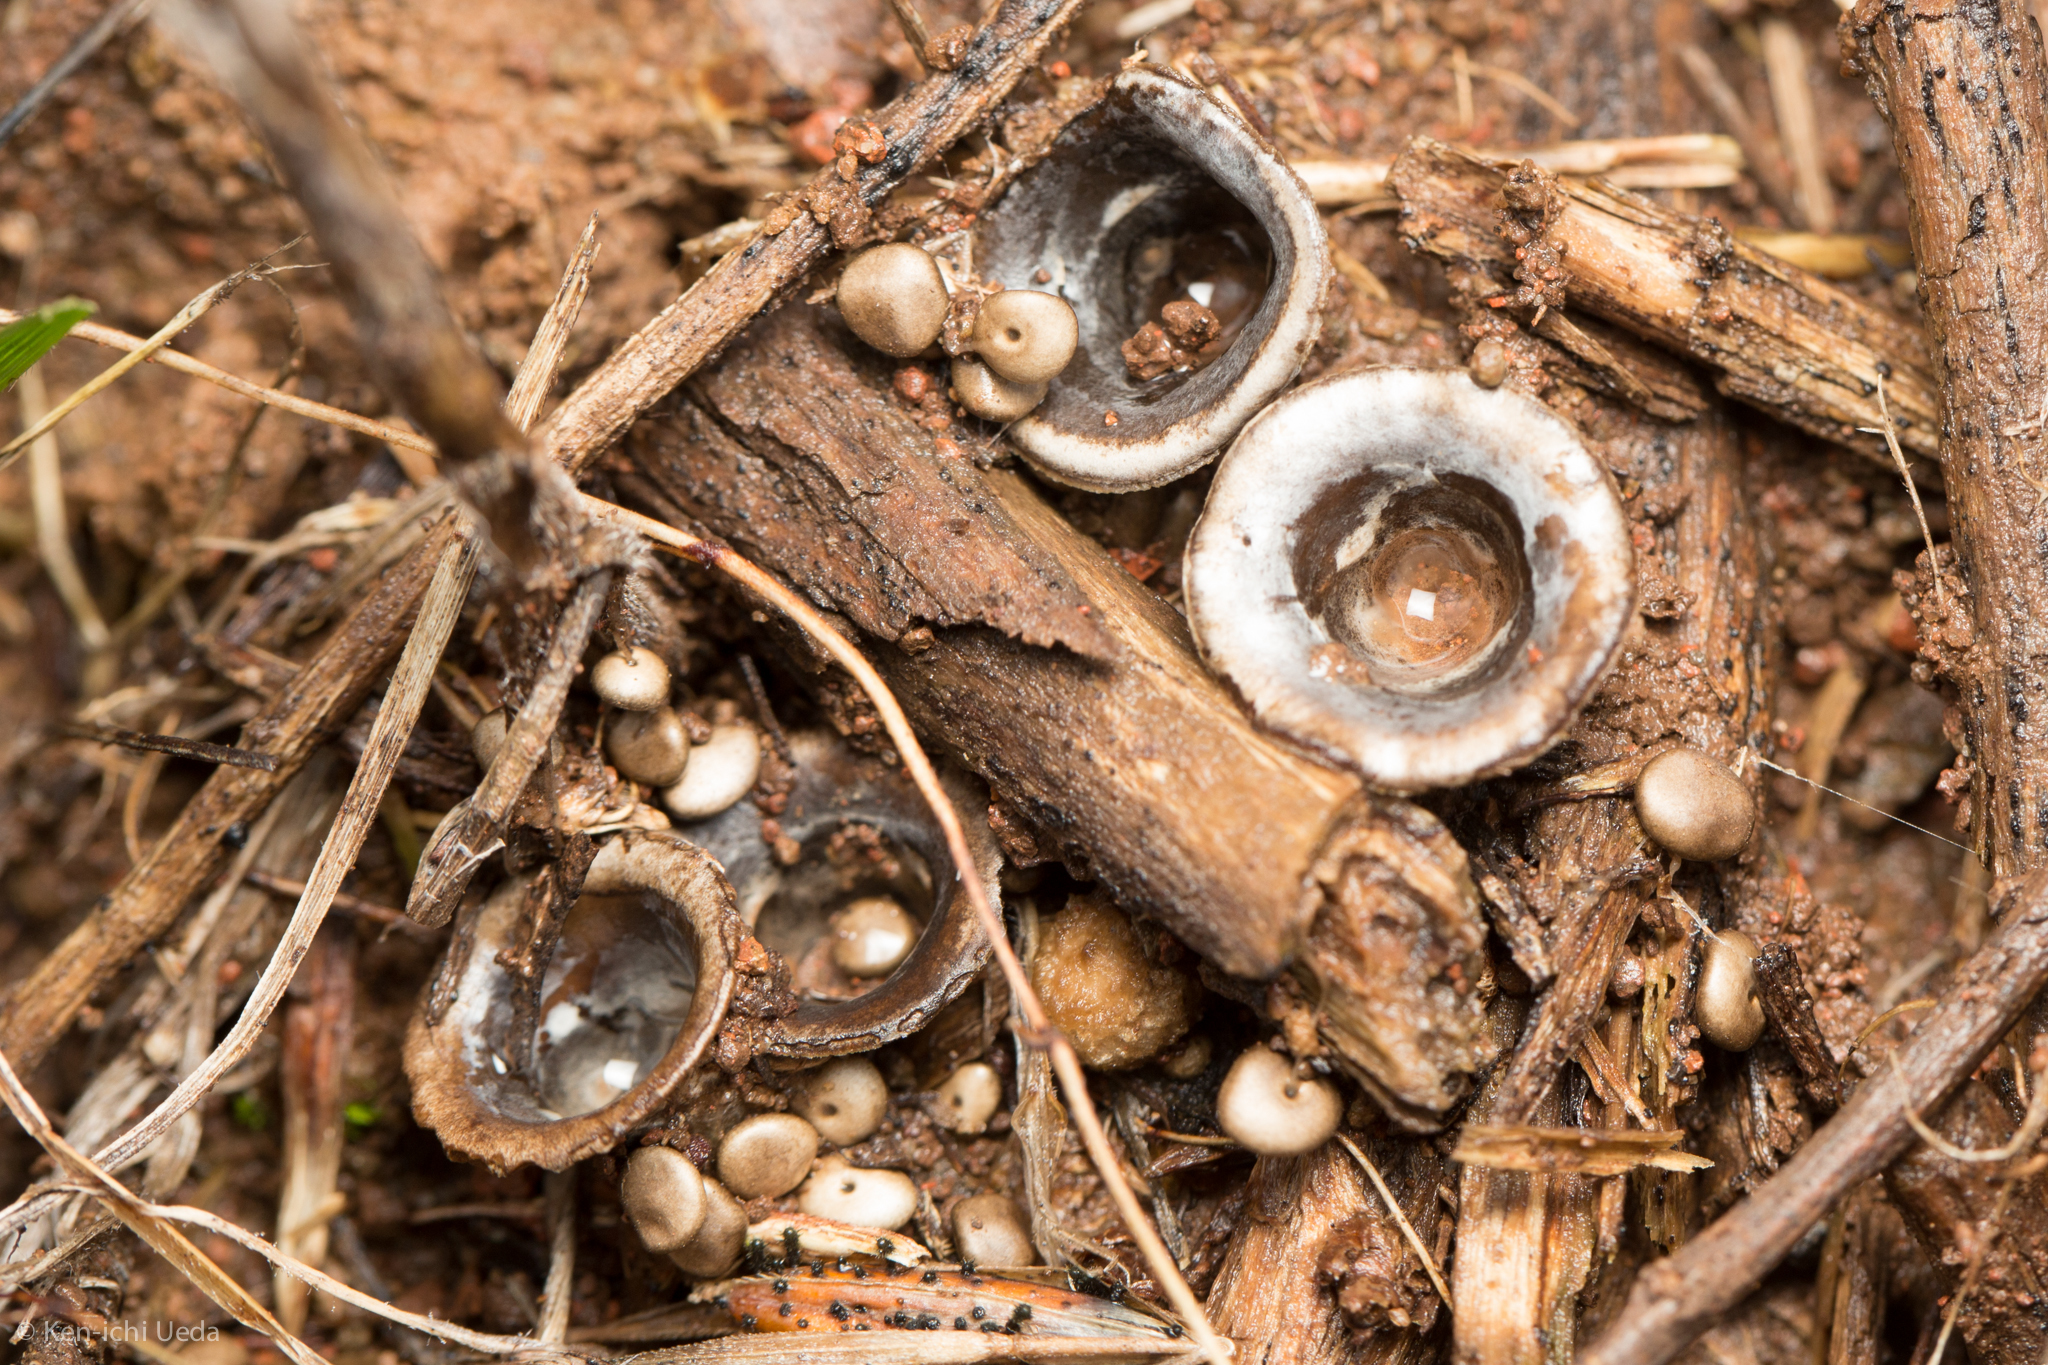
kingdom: Fungi
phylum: Basidiomycota
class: Agaricomycetes
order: Agaricales
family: Agaricaceae
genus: Cyathus
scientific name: Cyathus olla
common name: Field bird's nest
